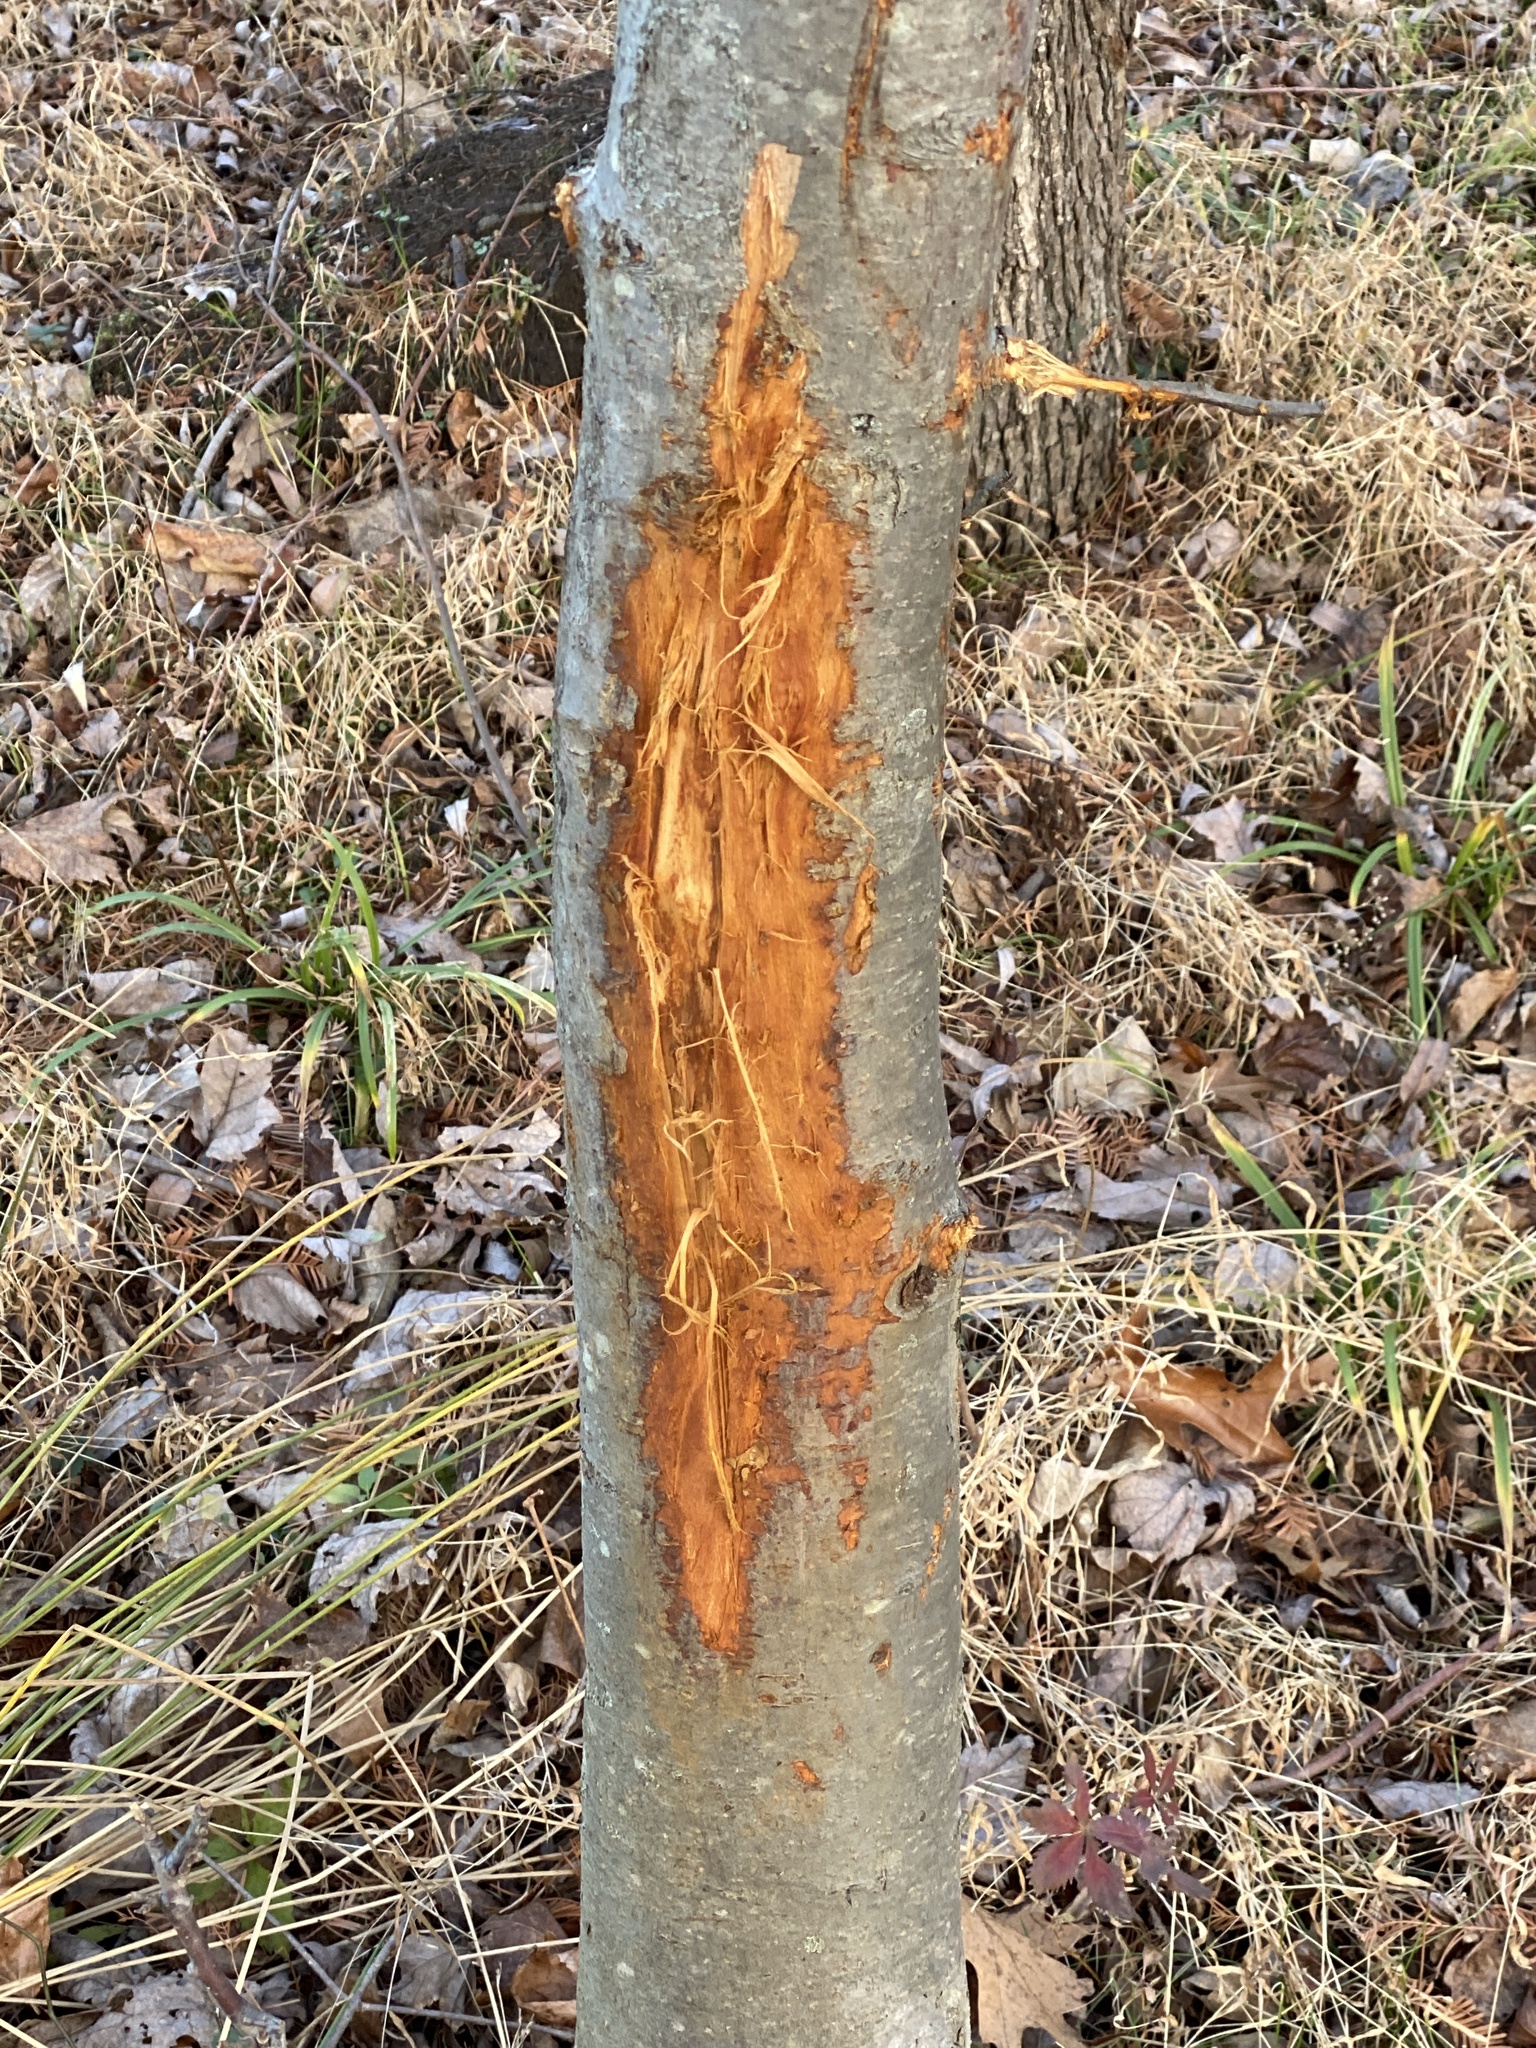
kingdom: Animalia
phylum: Chordata
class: Mammalia
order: Artiodactyla
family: Cervidae
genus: Odocoileus
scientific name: Odocoileus virginianus
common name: White-tailed deer
